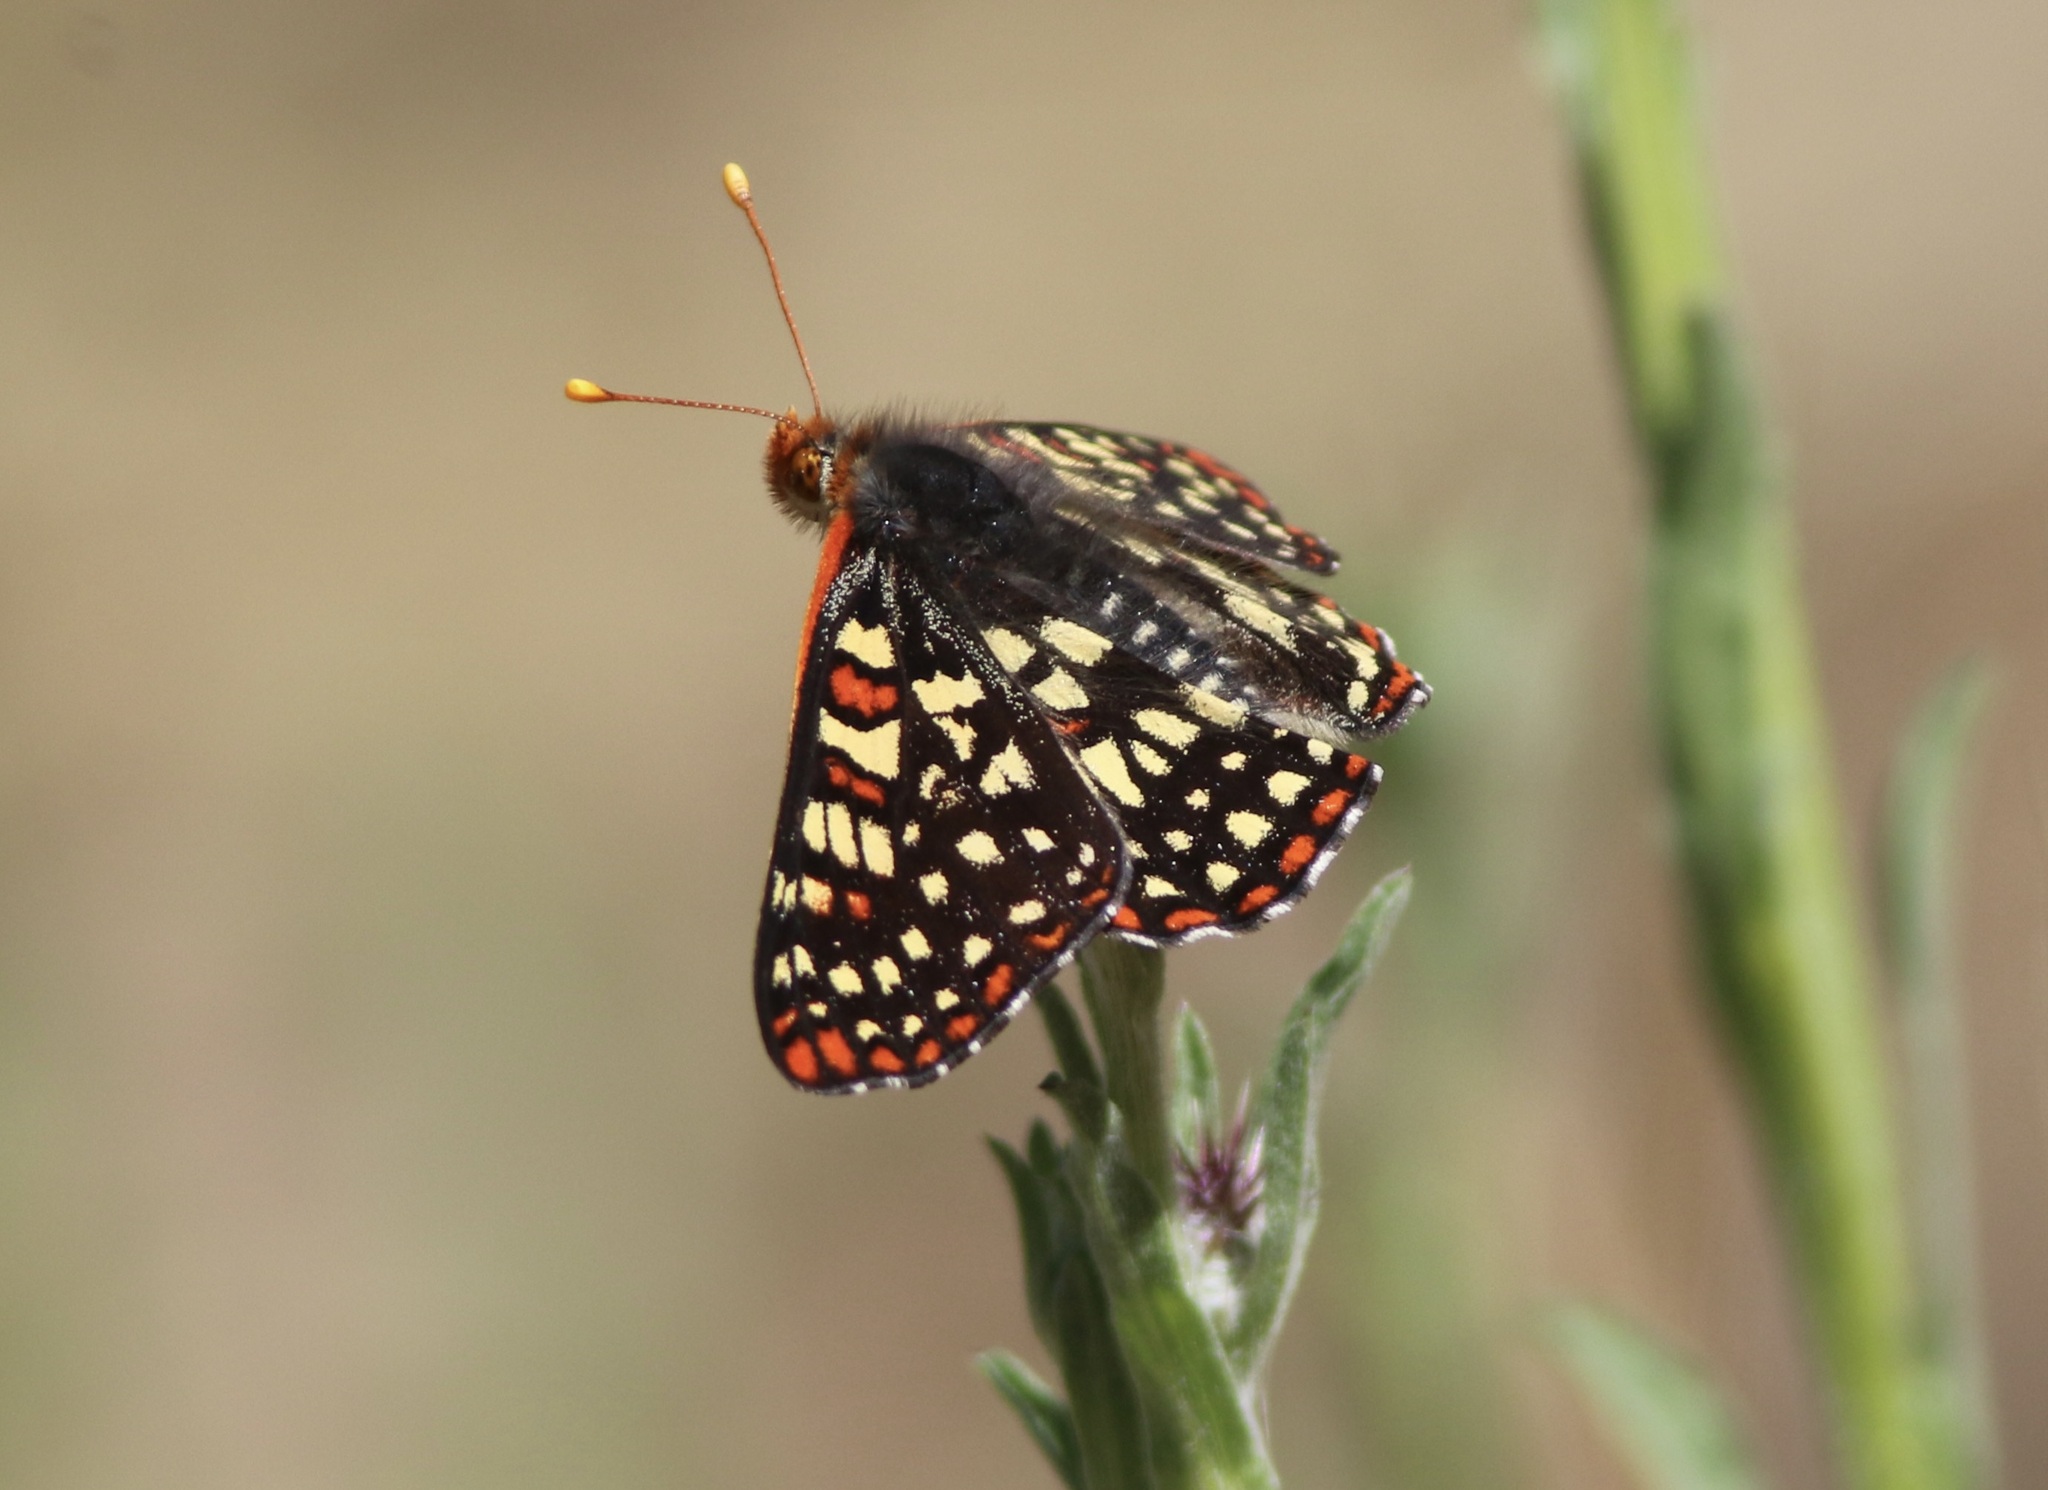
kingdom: Animalia
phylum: Arthropoda
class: Insecta
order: Lepidoptera
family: Nymphalidae
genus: Occidryas
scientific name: Occidryas chalcedona
